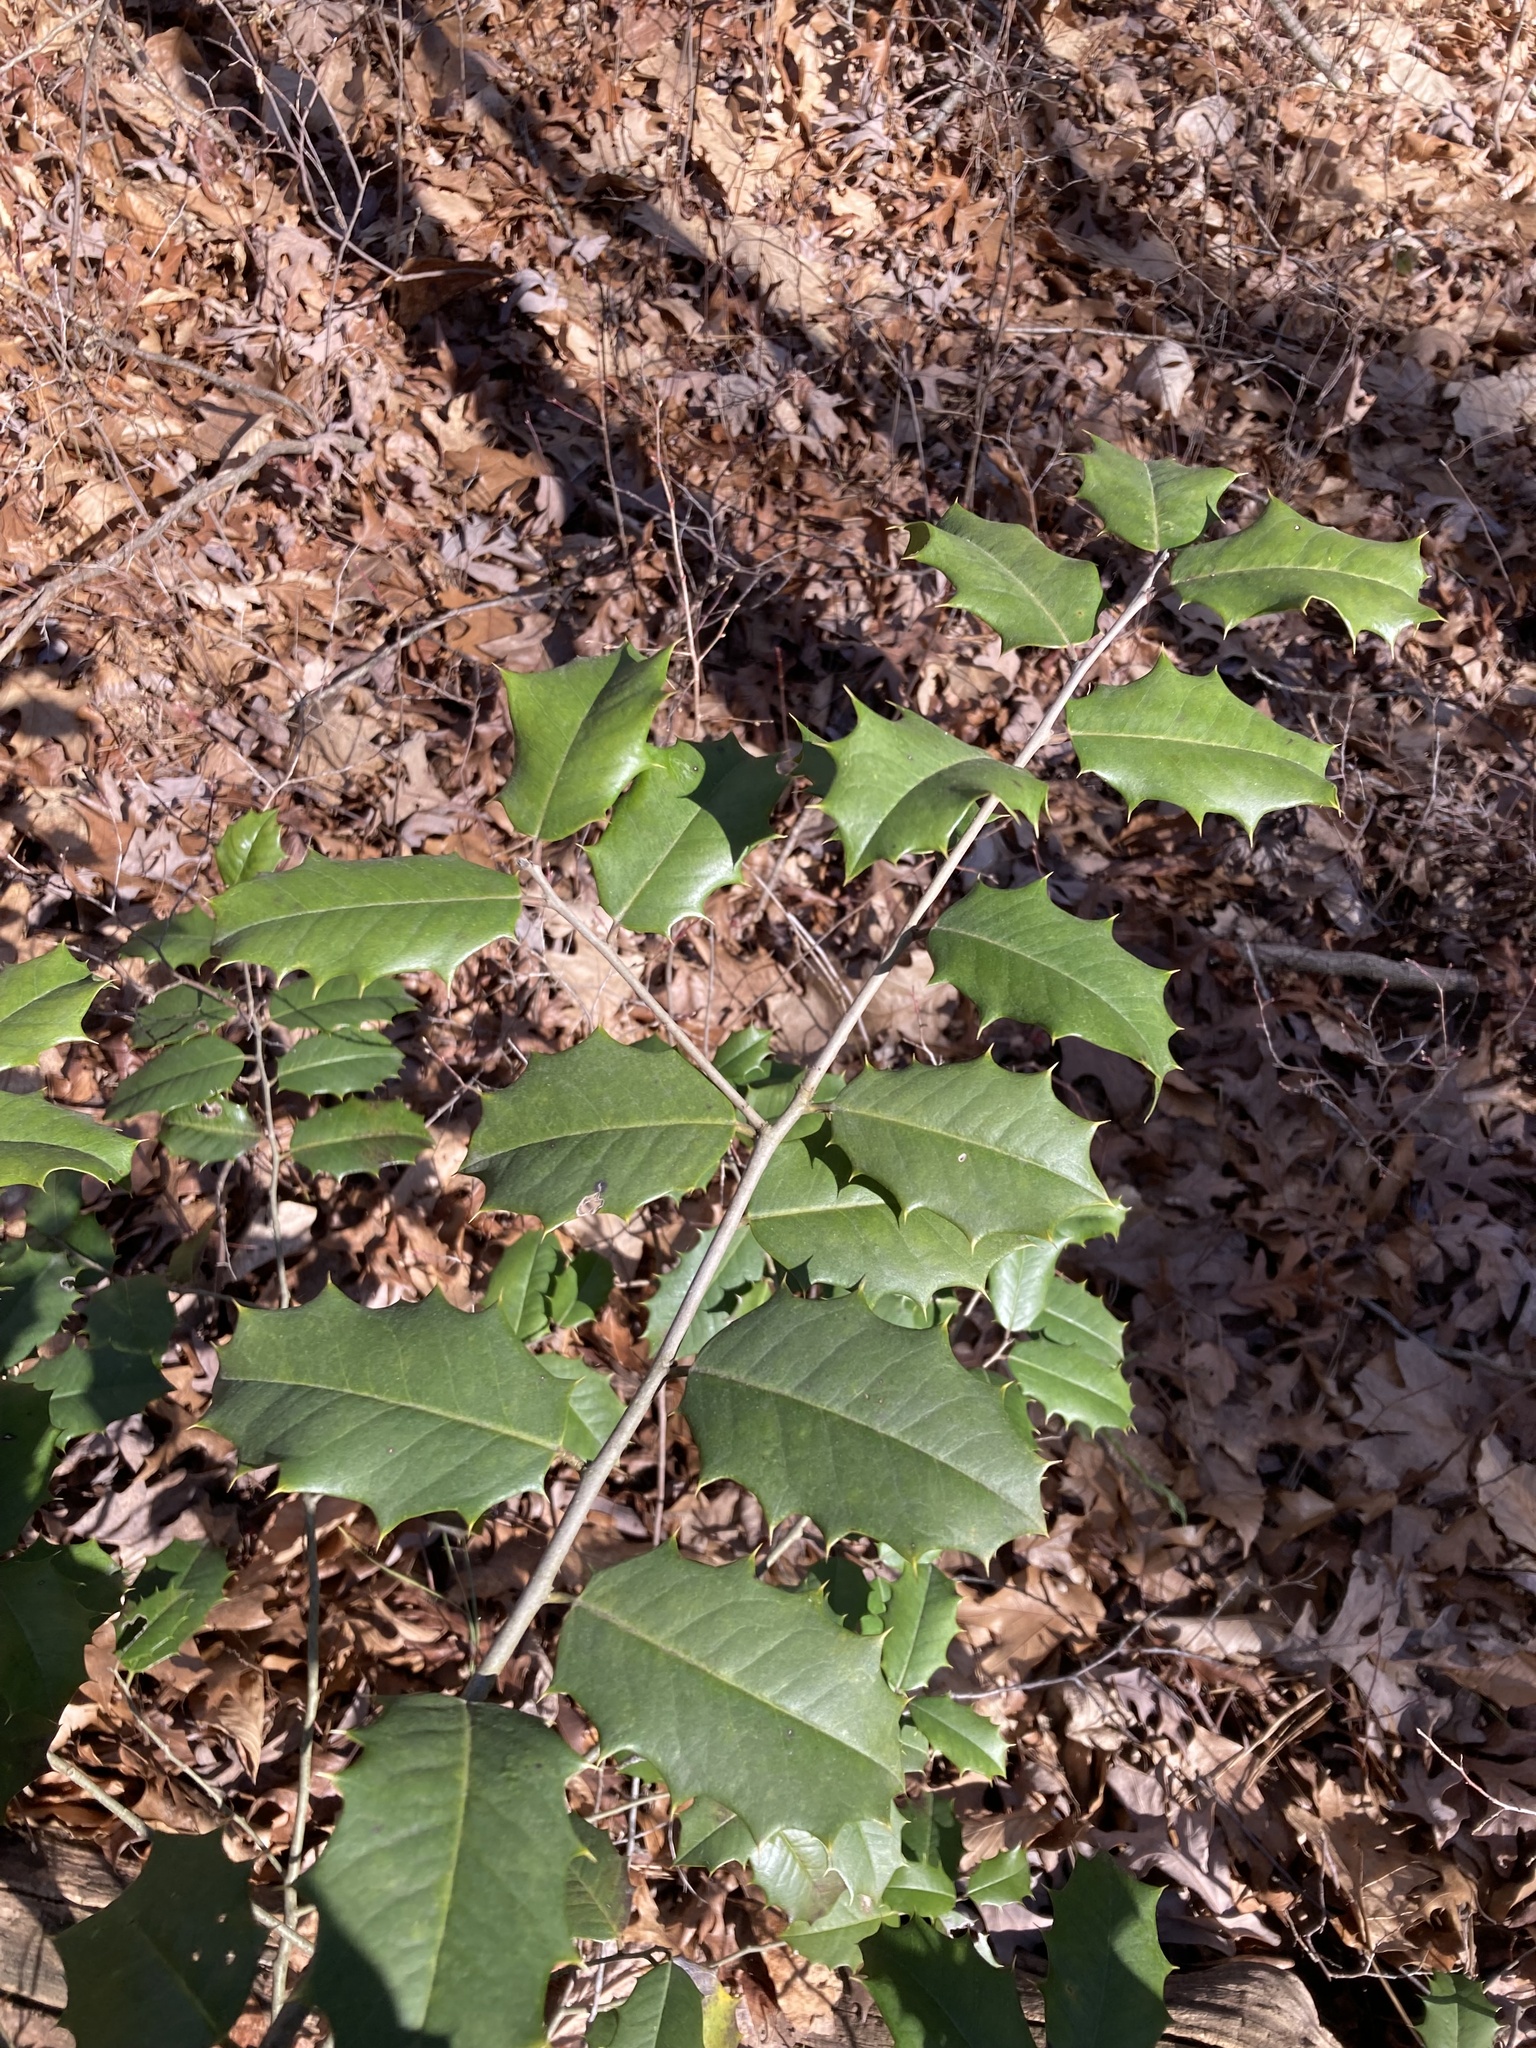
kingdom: Plantae
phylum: Tracheophyta
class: Magnoliopsida
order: Aquifoliales
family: Aquifoliaceae
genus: Ilex
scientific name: Ilex opaca
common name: American holly
